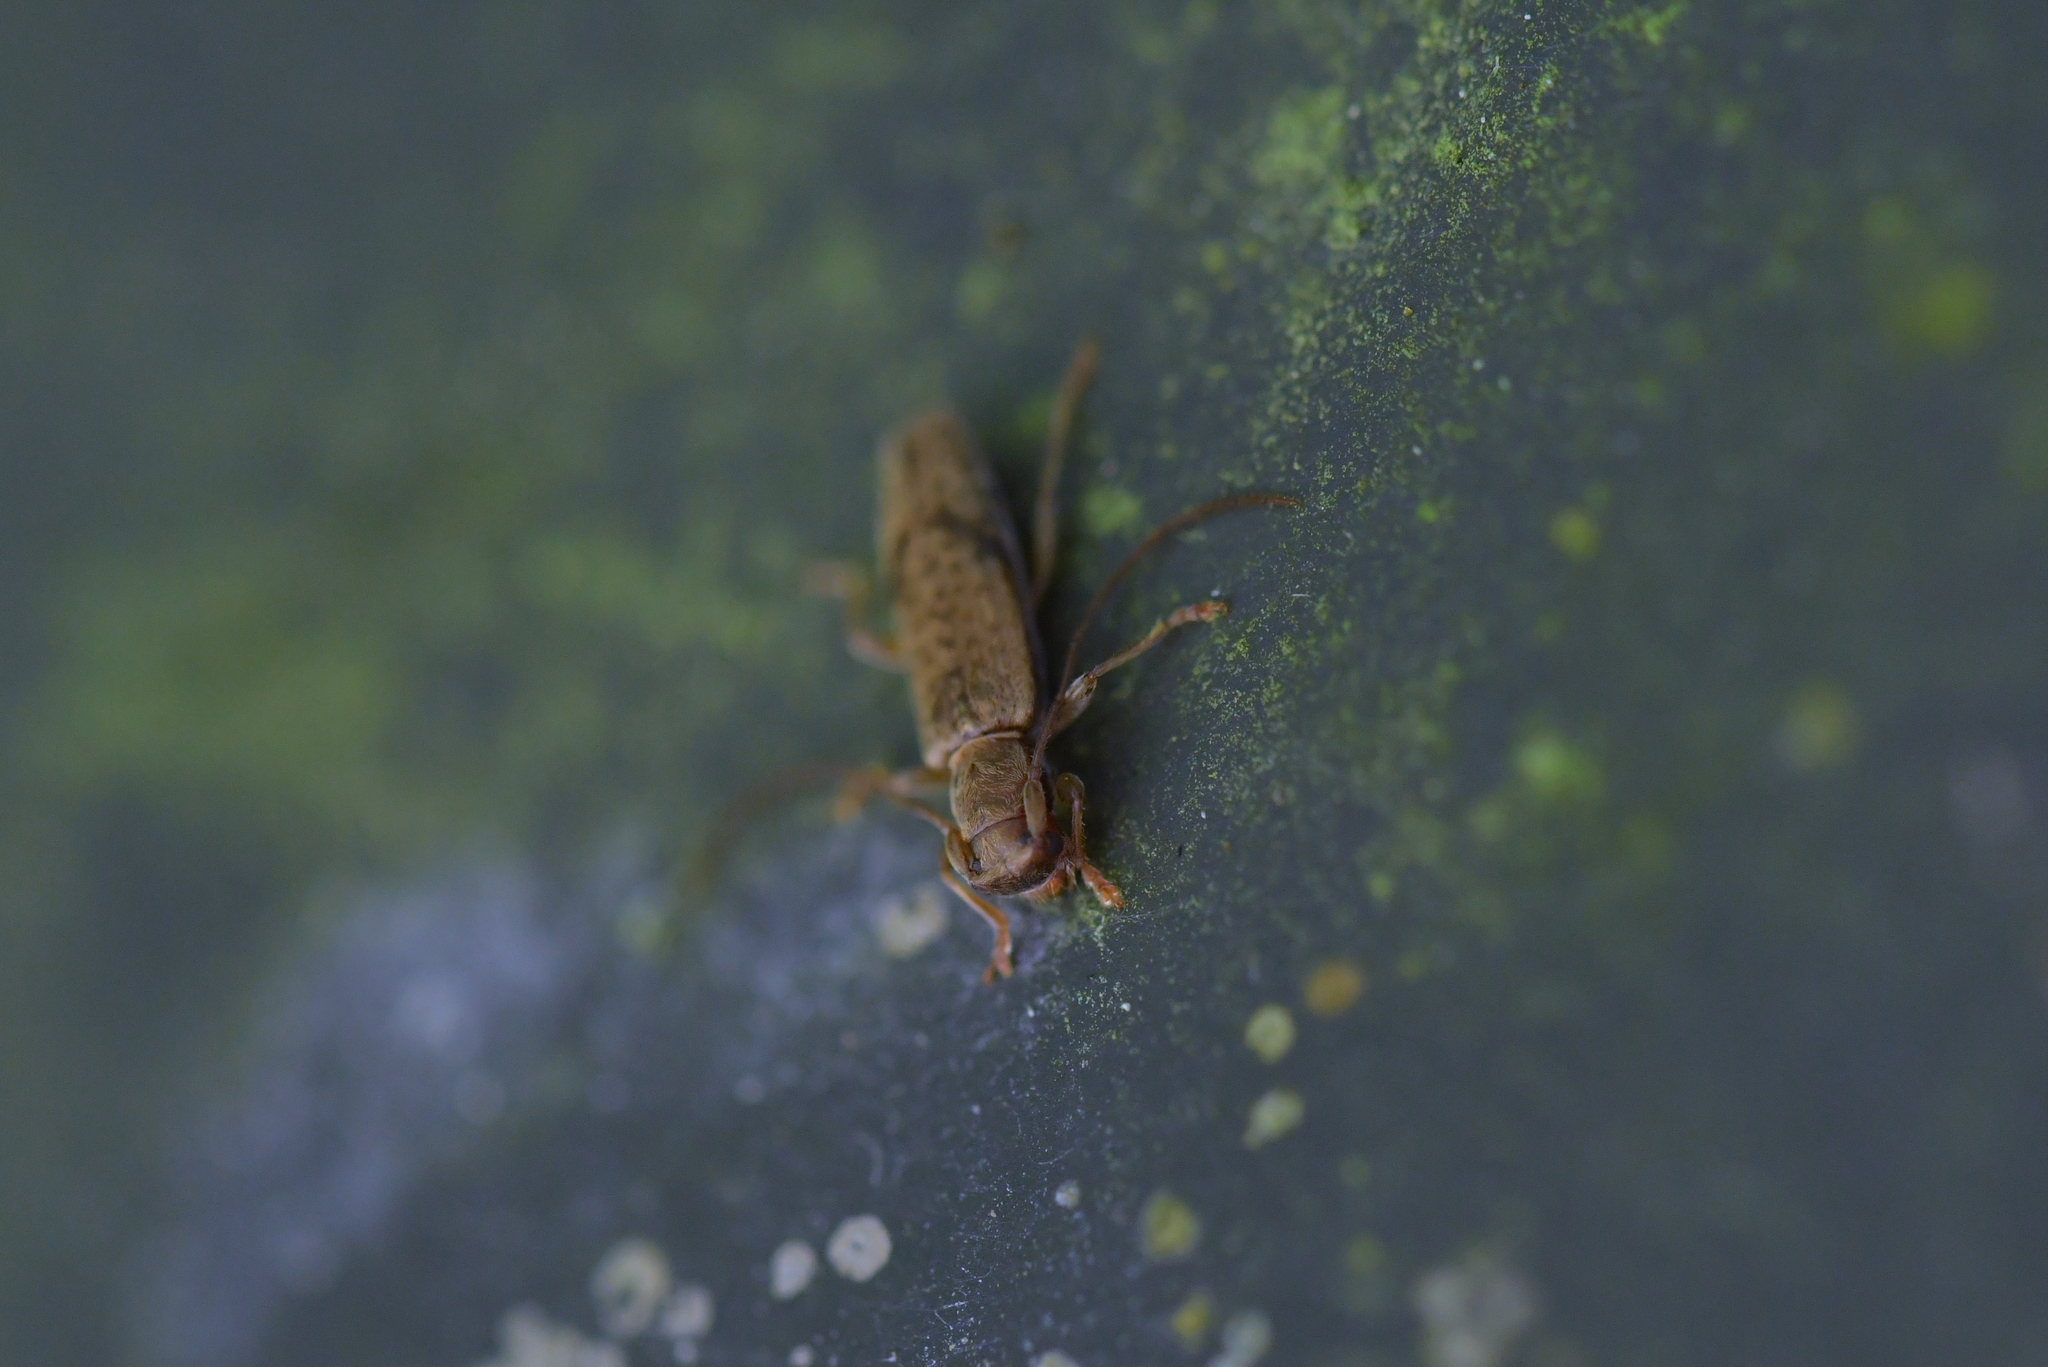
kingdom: Animalia
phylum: Arthropoda
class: Insecta
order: Coleoptera
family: Cerambycidae
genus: Spilotrogia
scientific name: Spilotrogia
